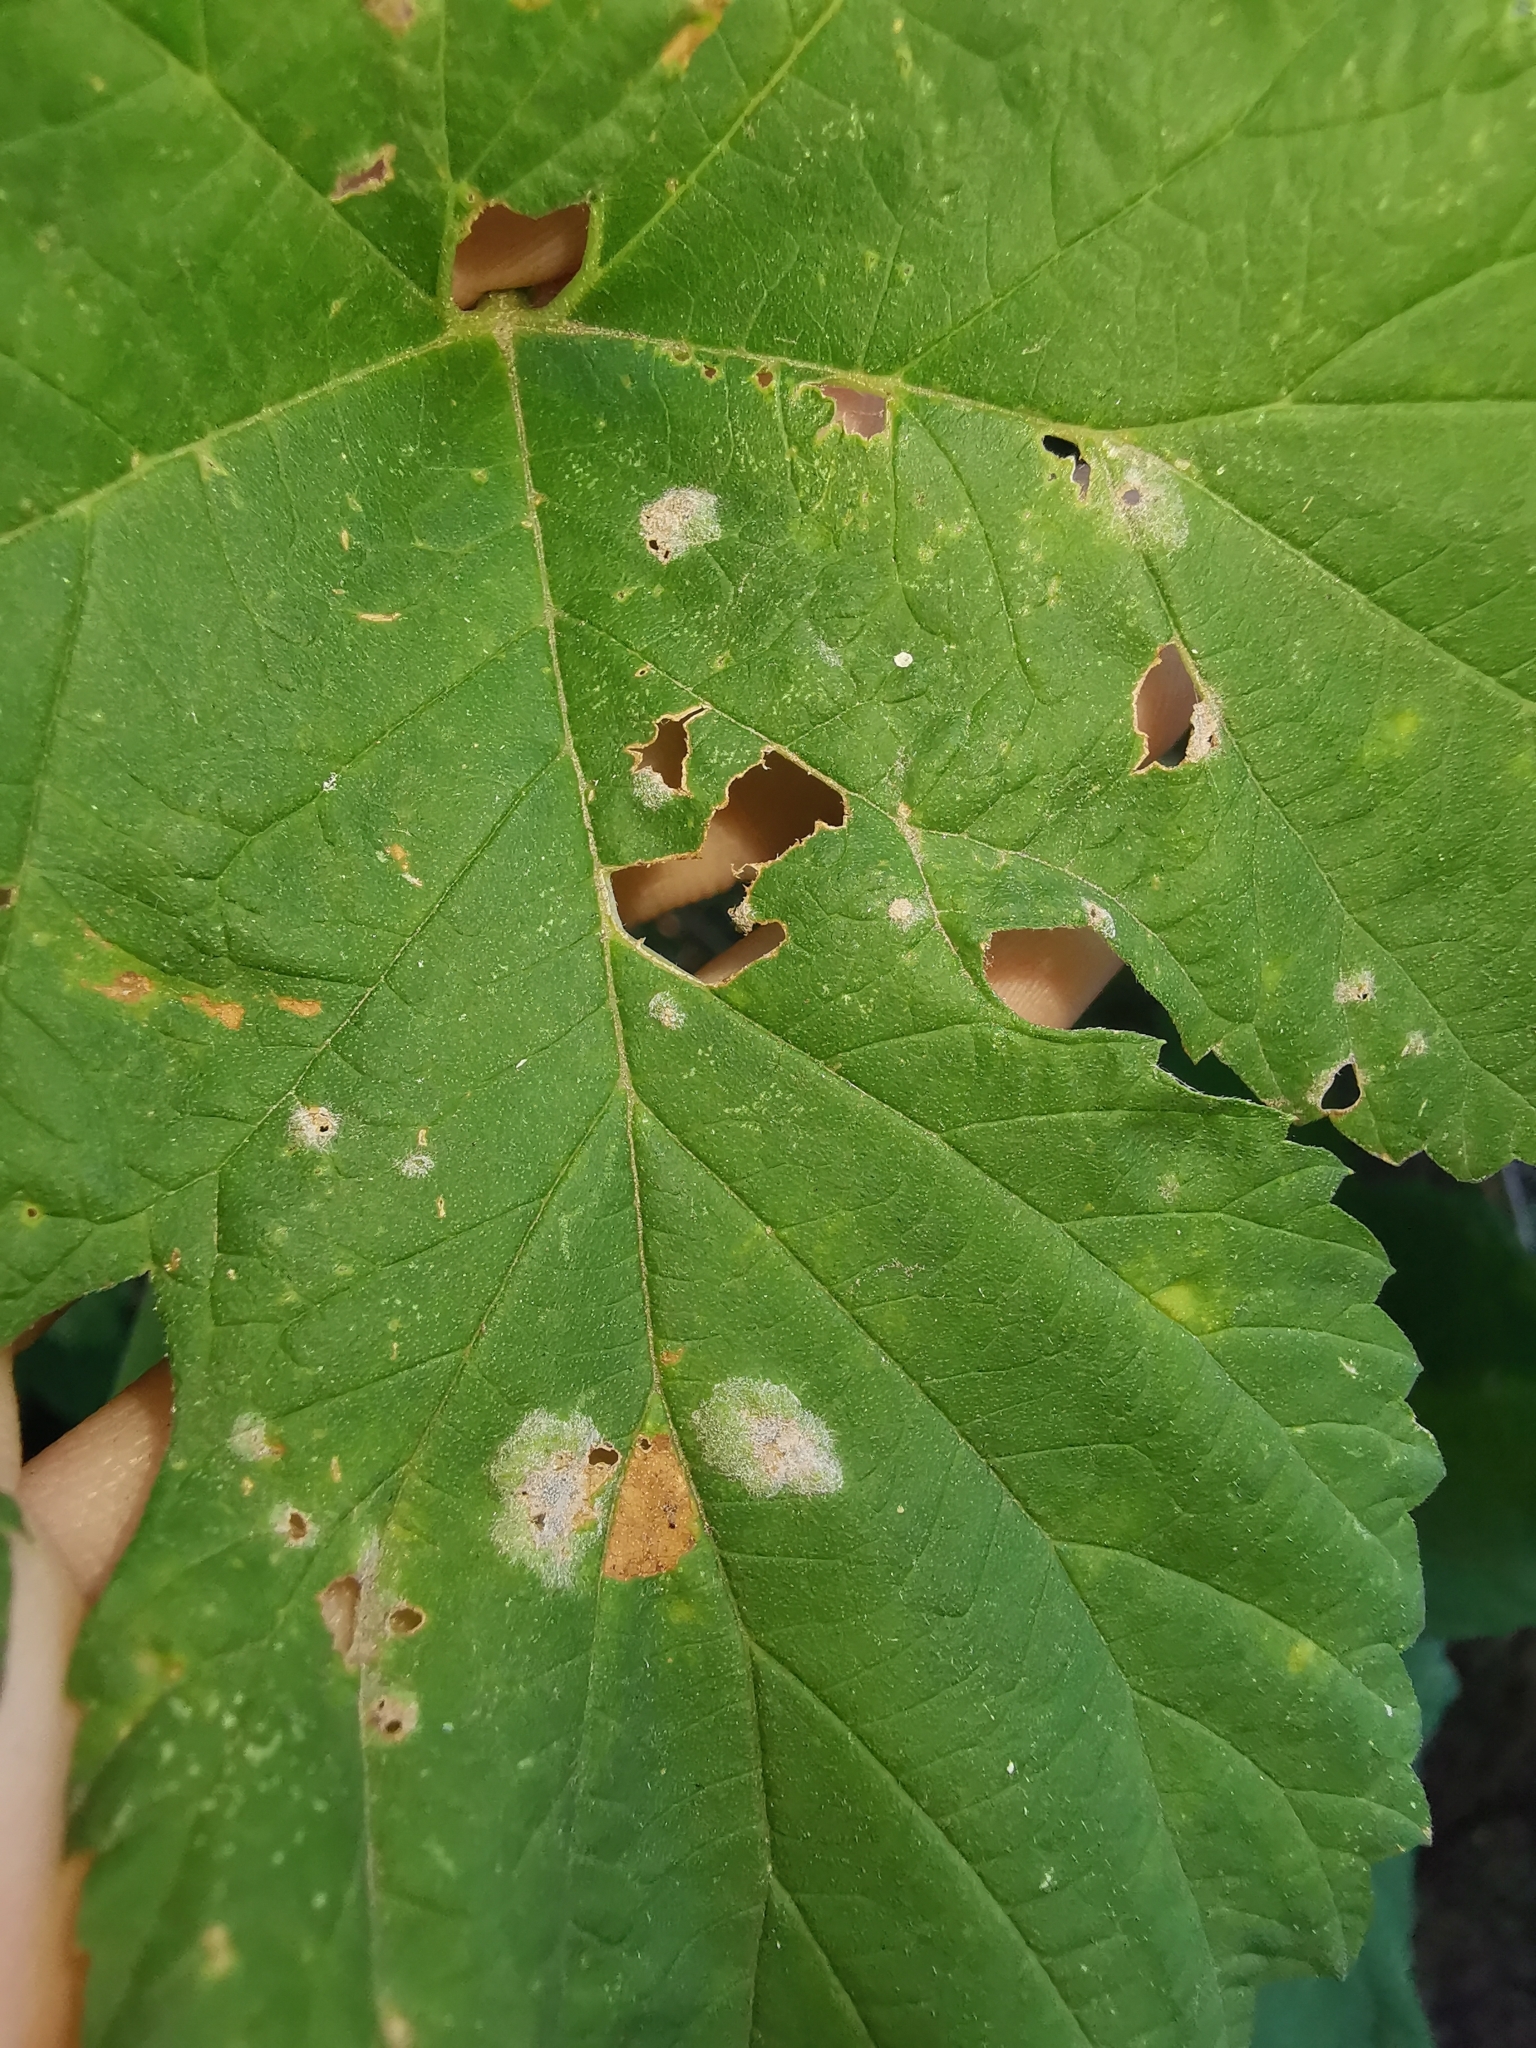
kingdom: Fungi
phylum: Ascomycota
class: Leotiomycetes
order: Helotiales
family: Erysiphaceae
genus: Podosphaera
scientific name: Podosphaera macularis
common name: Powdery mildew
